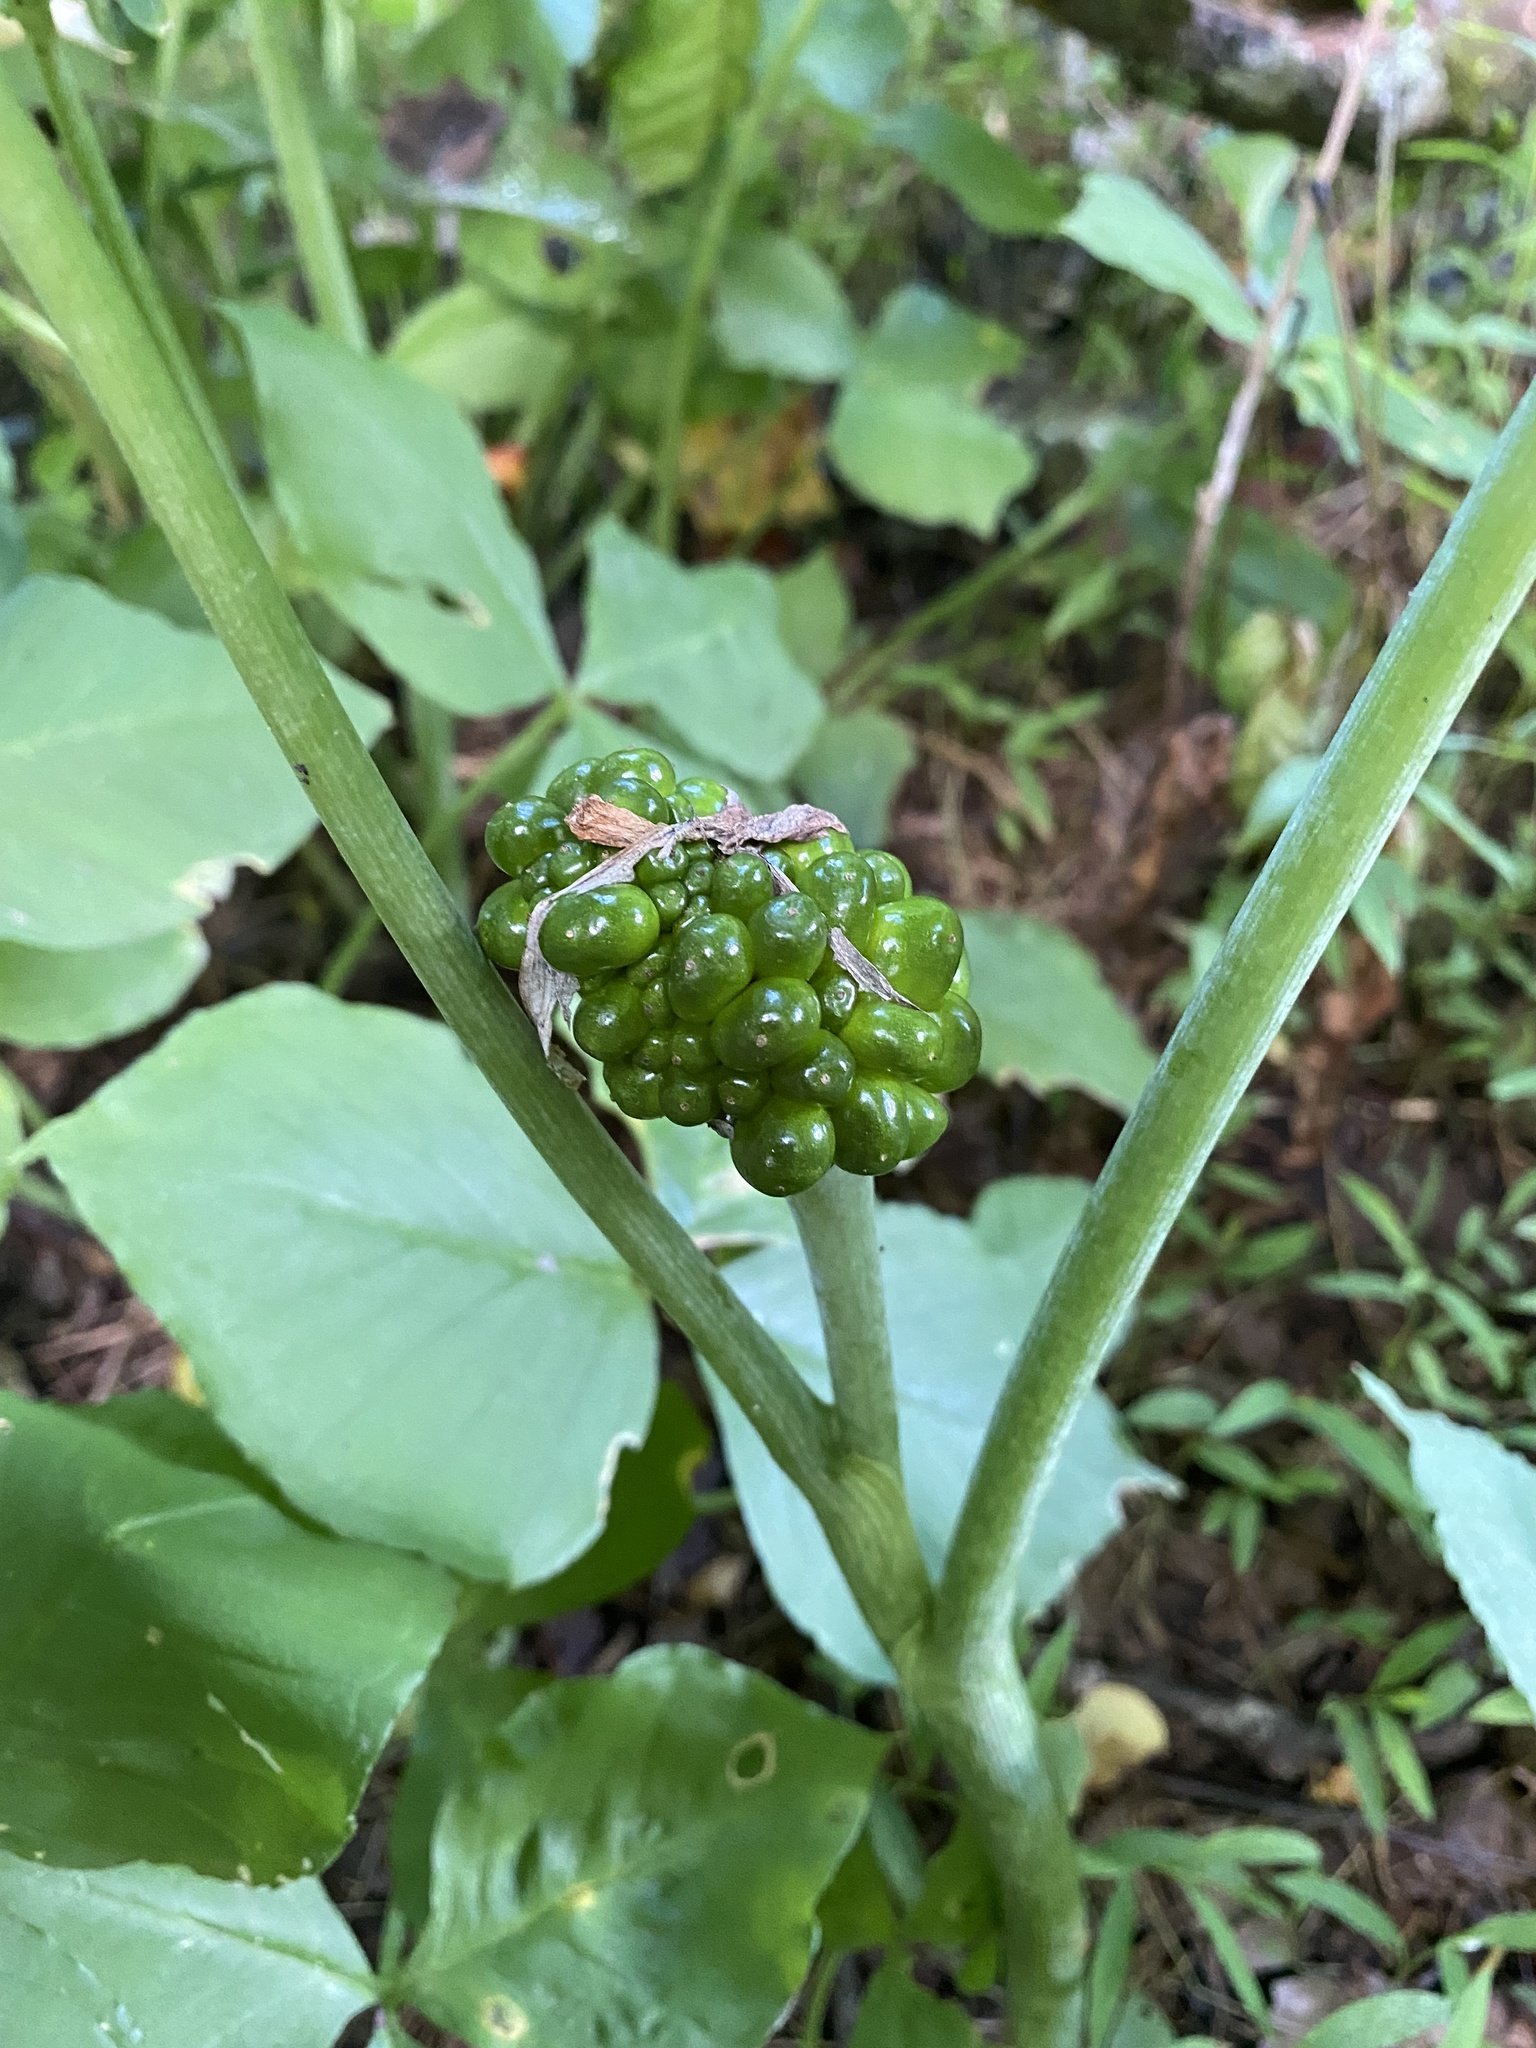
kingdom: Plantae
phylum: Tracheophyta
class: Liliopsida
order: Alismatales
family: Araceae
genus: Arisaema
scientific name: Arisaema triphyllum
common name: Jack-in-the-pulpit
